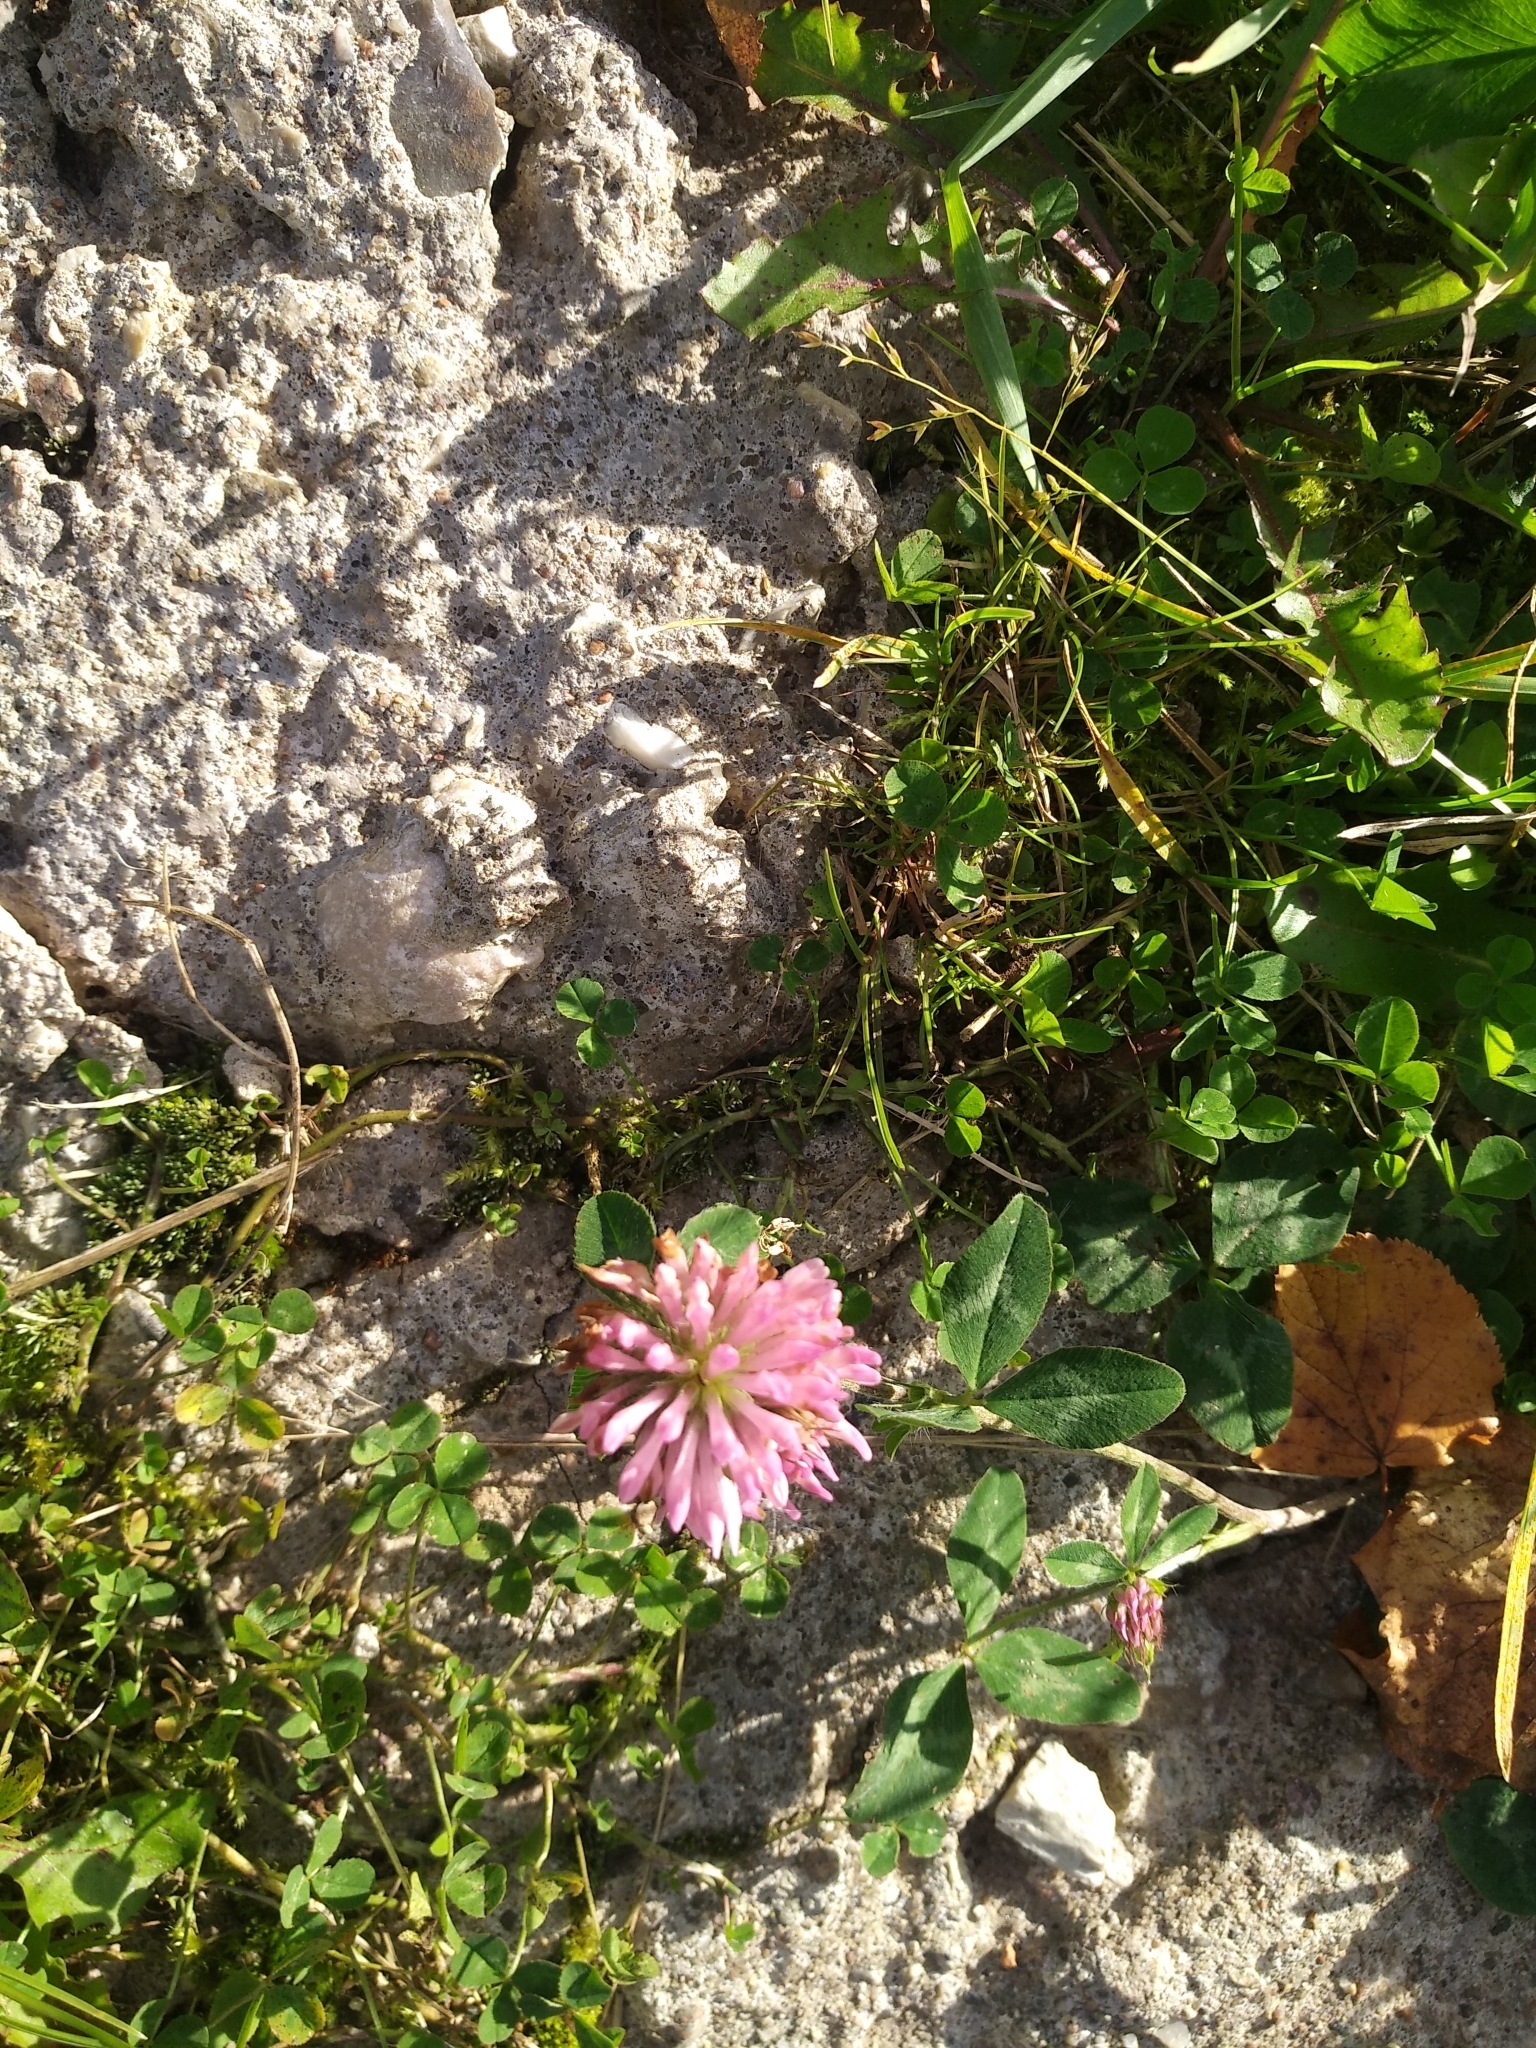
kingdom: Plantae
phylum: Tracheophyta
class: Magnoliopsida
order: Fabales
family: Fabaceae
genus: Trifolium
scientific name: Trifolium pratense
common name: Red clover
